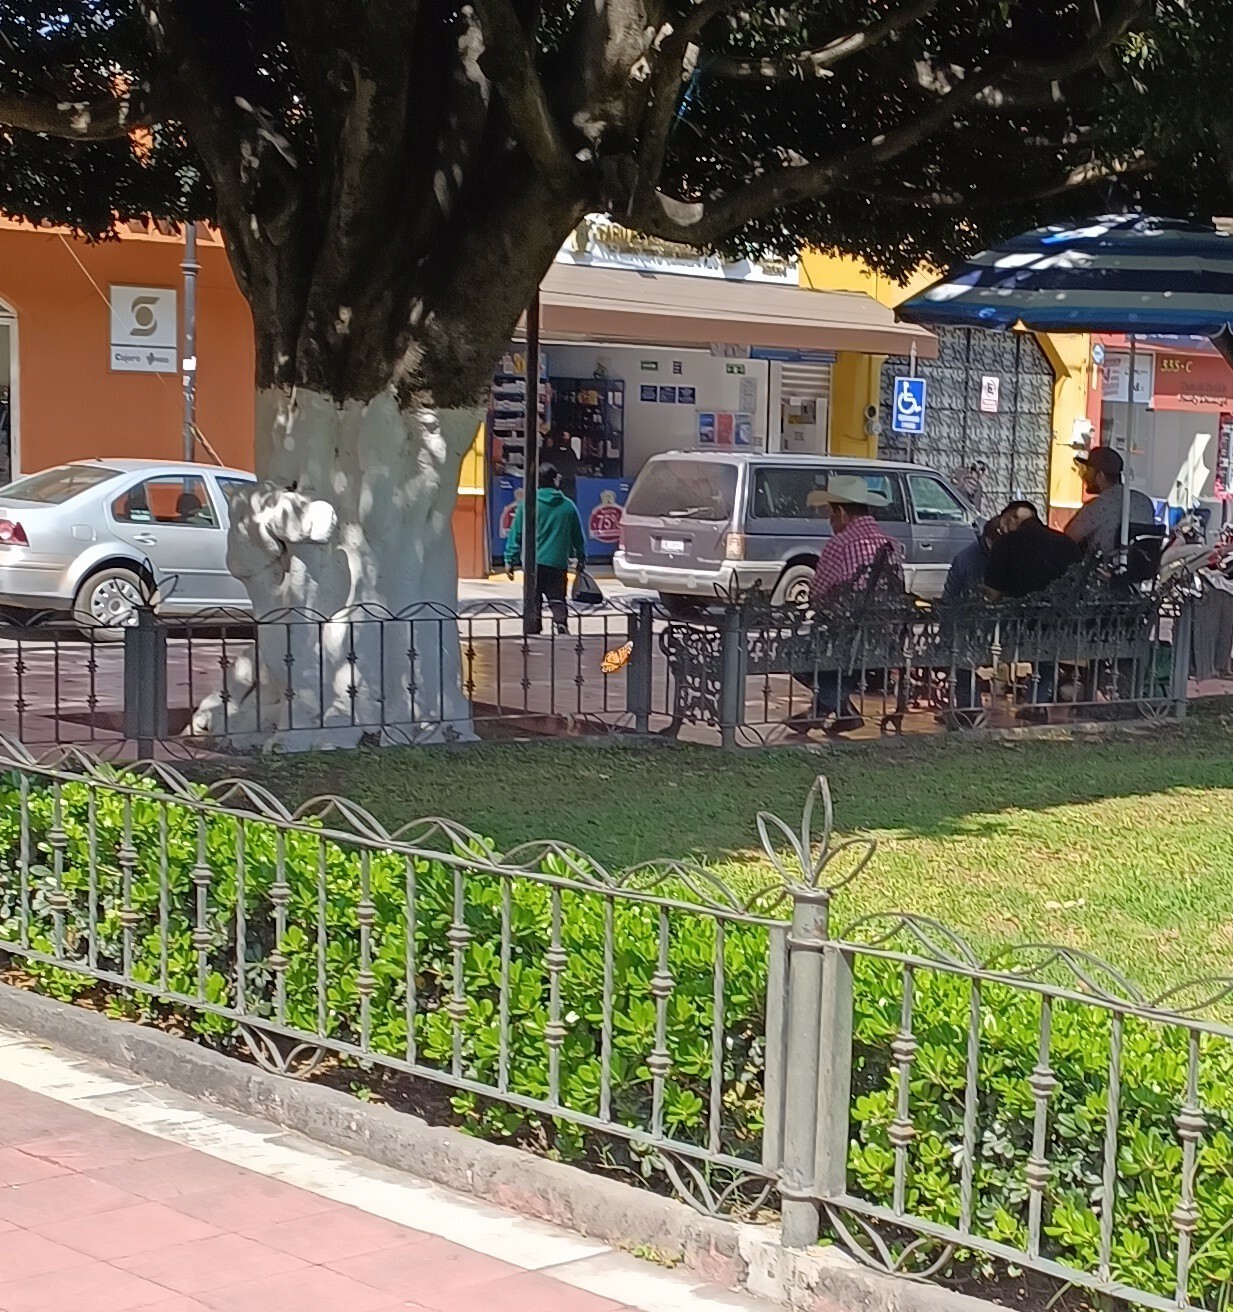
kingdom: Animalia
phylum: Arthropoda
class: Insecta
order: Lepidoptera
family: Nymphalidae
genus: Danaus
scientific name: Danaus plexippus
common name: Monarch
